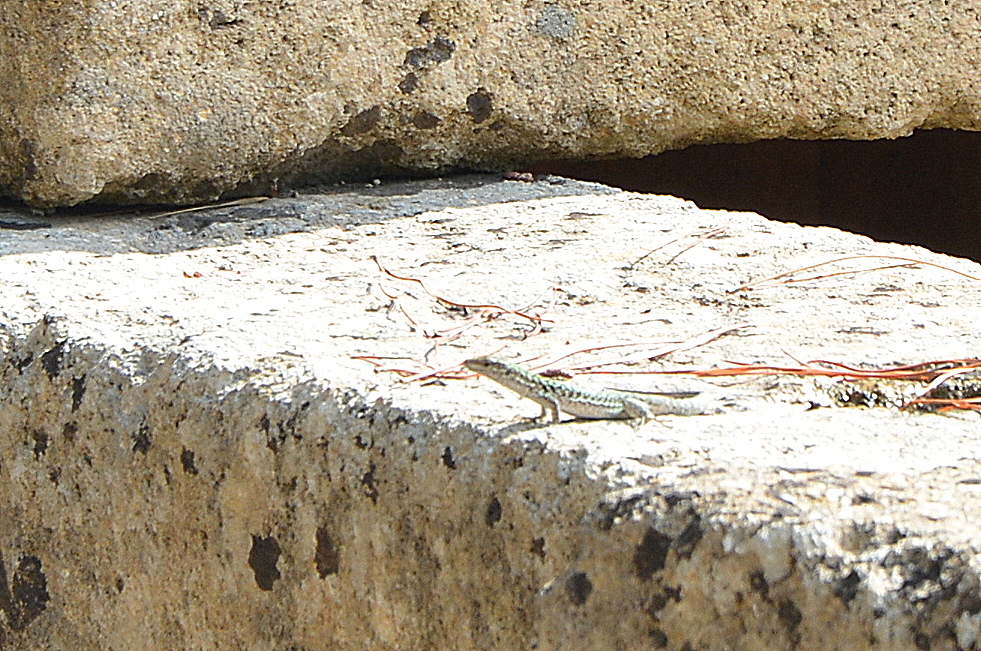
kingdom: Animalia
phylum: Chordata
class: Squamata
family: Lacertidae
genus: Podarcis
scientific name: Podarcis siculus
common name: Italian wall lizard
